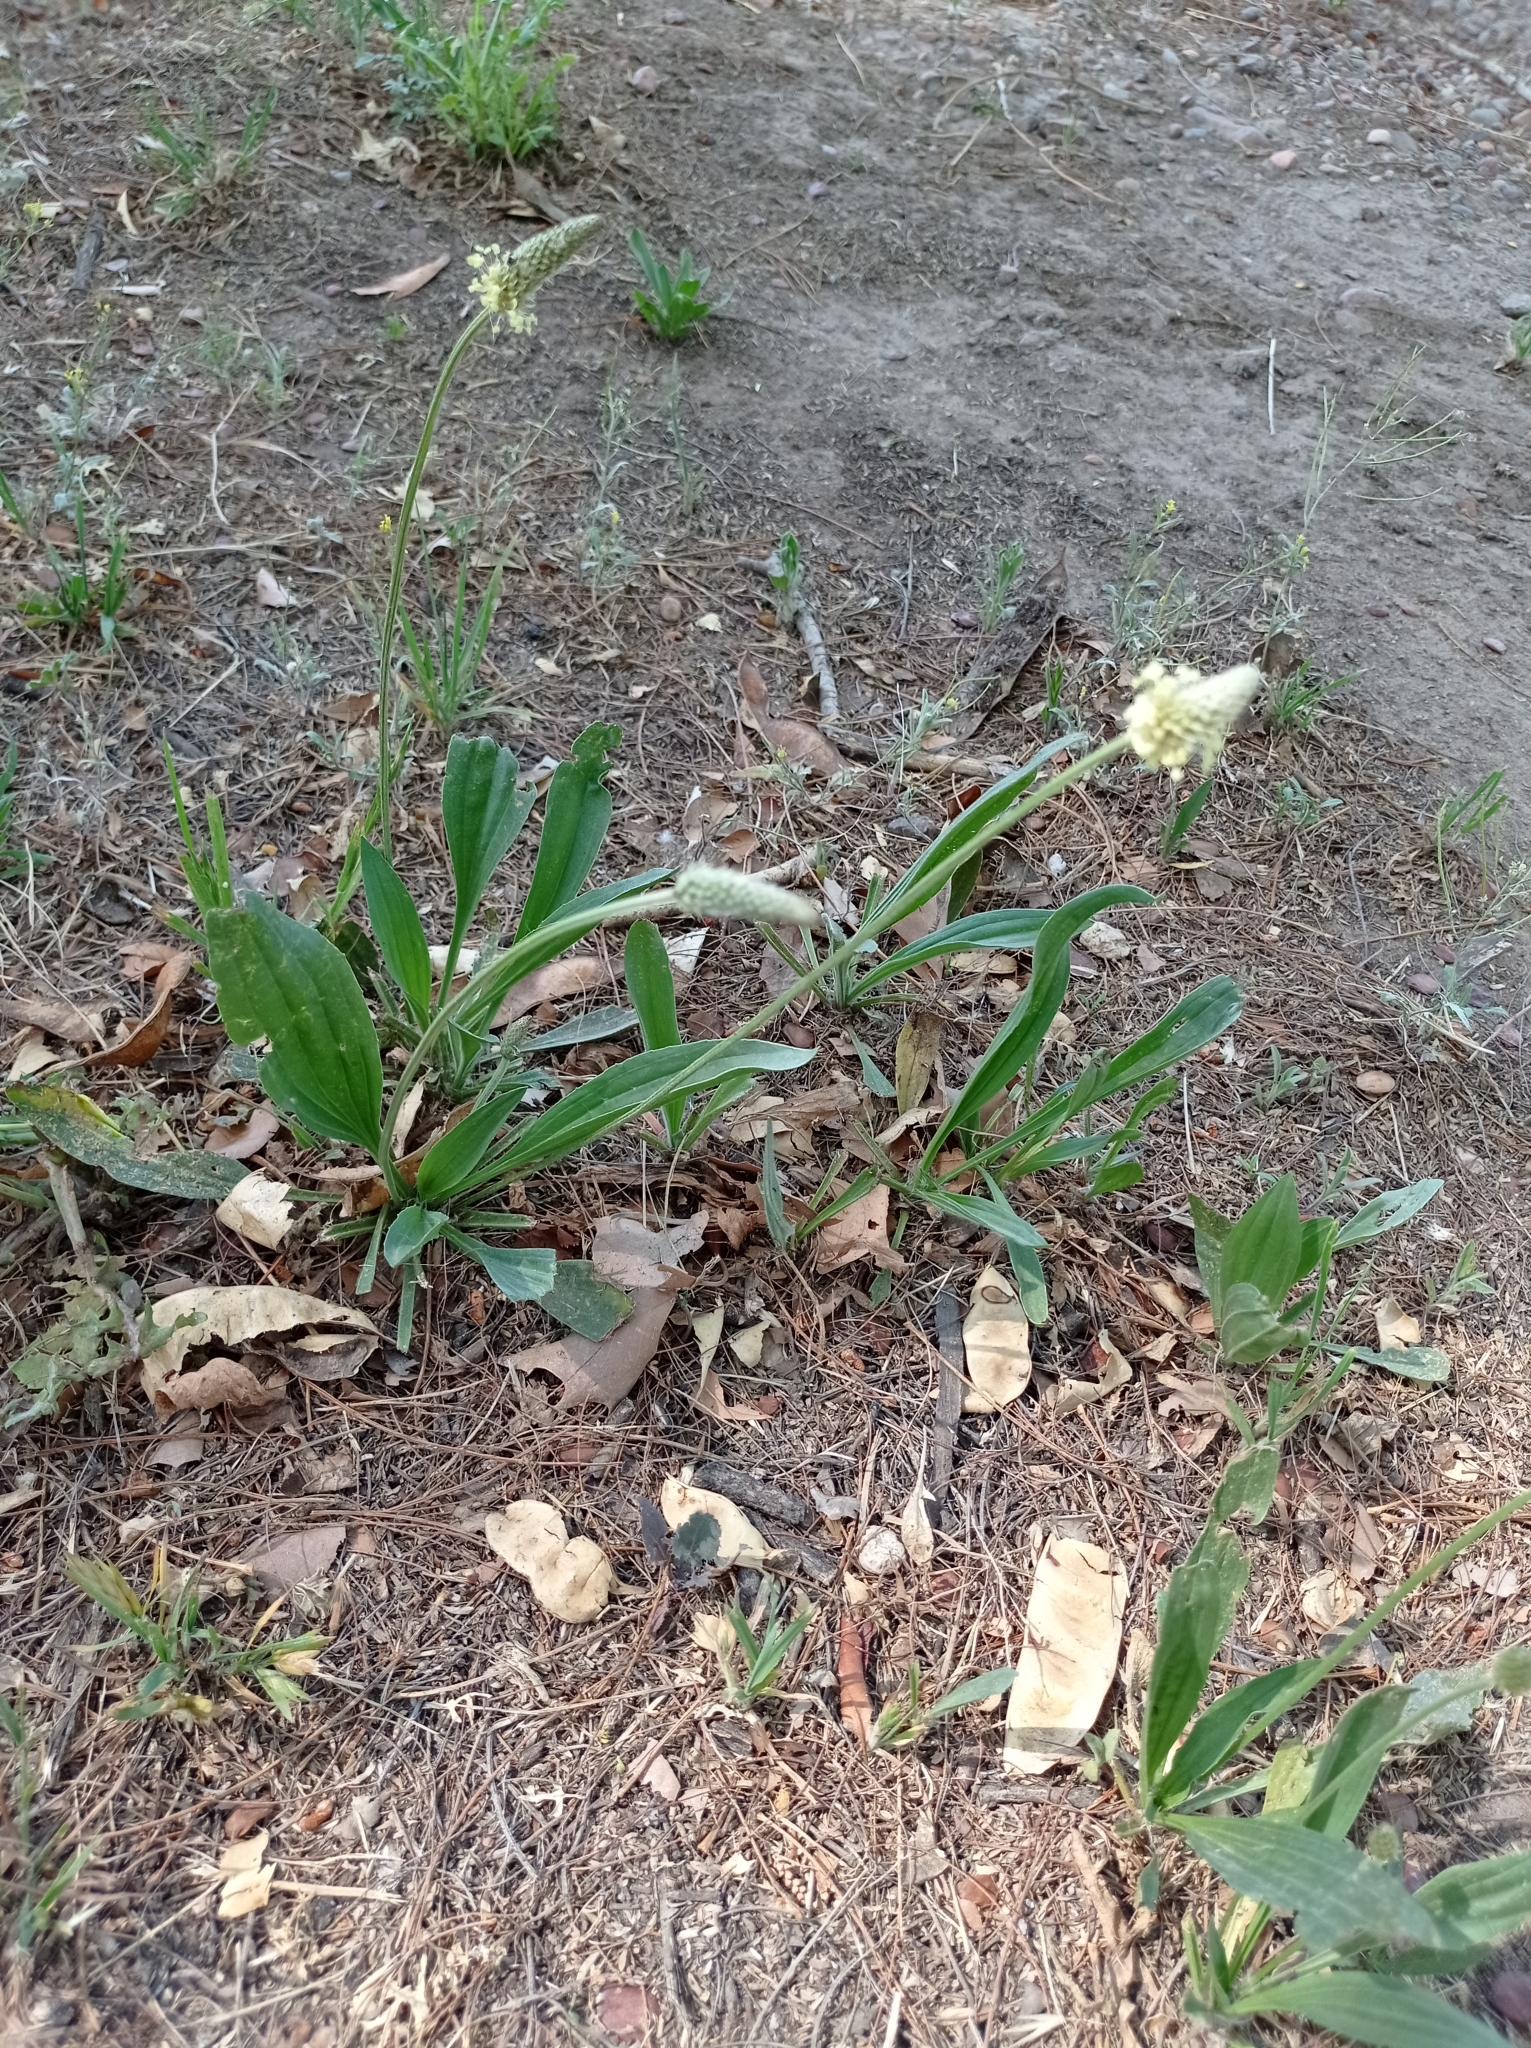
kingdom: Plantae
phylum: Tracheophyta
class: Magnoliopsida
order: Lamiales
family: Plantaginaceae
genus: Plantago
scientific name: Plantago lanceolata
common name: Ribwort plantain
